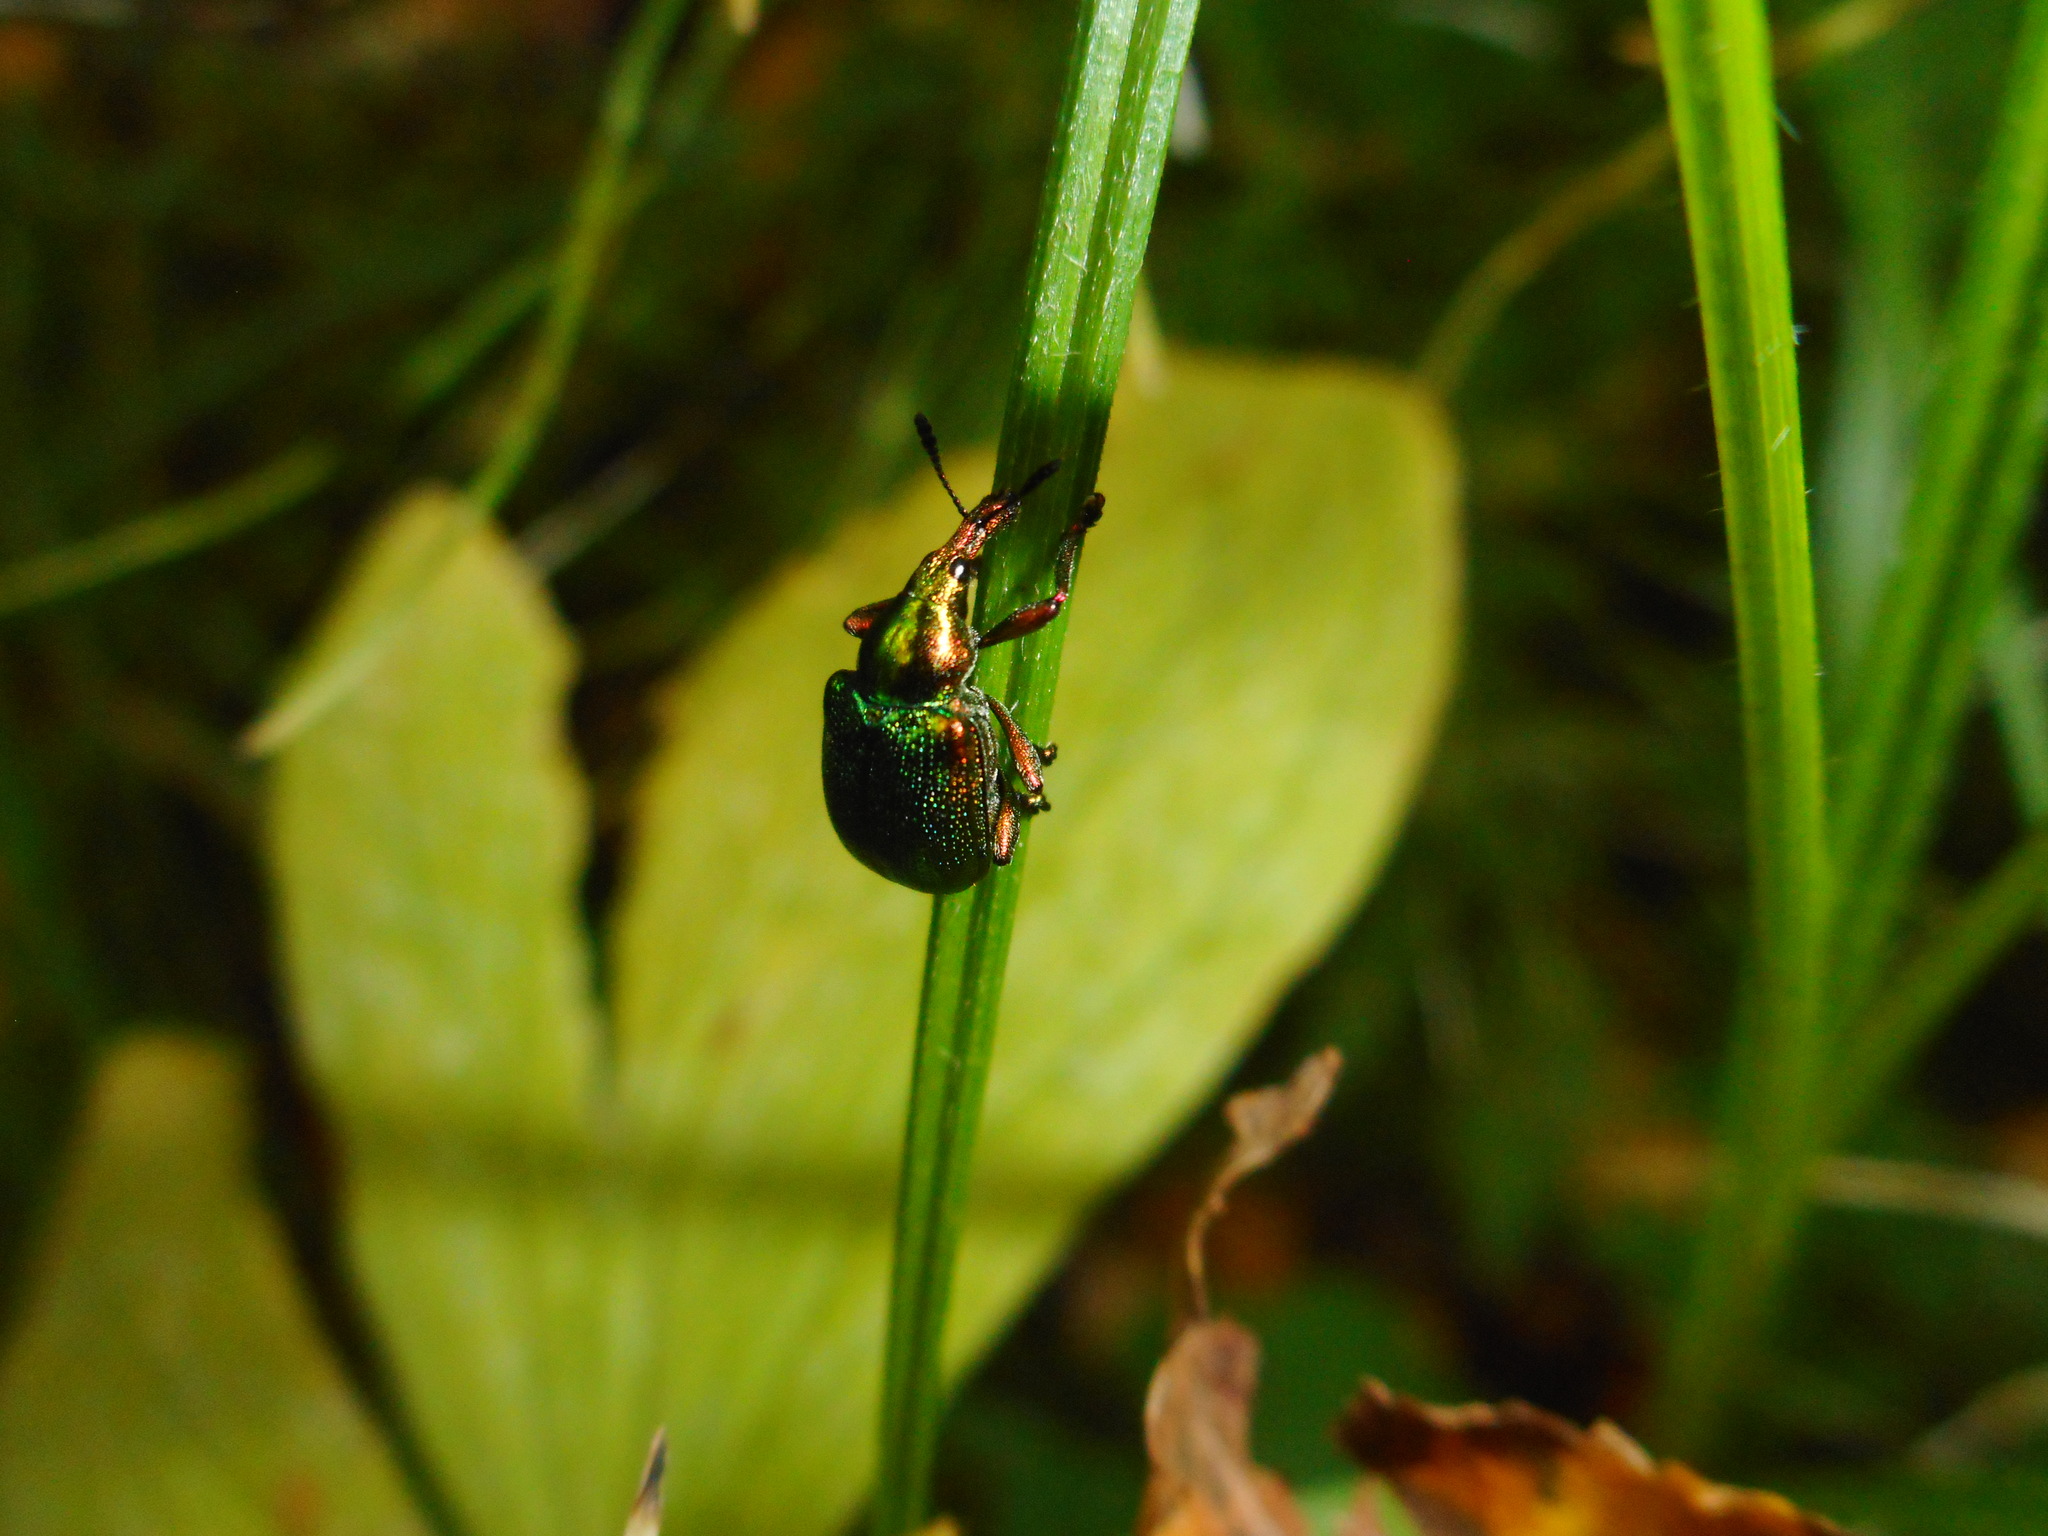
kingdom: Animalia
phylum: Arthropoda
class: Insecta
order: Coleoptera
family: Attelabidae
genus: Byctiscus
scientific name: Byctiscus betulae
